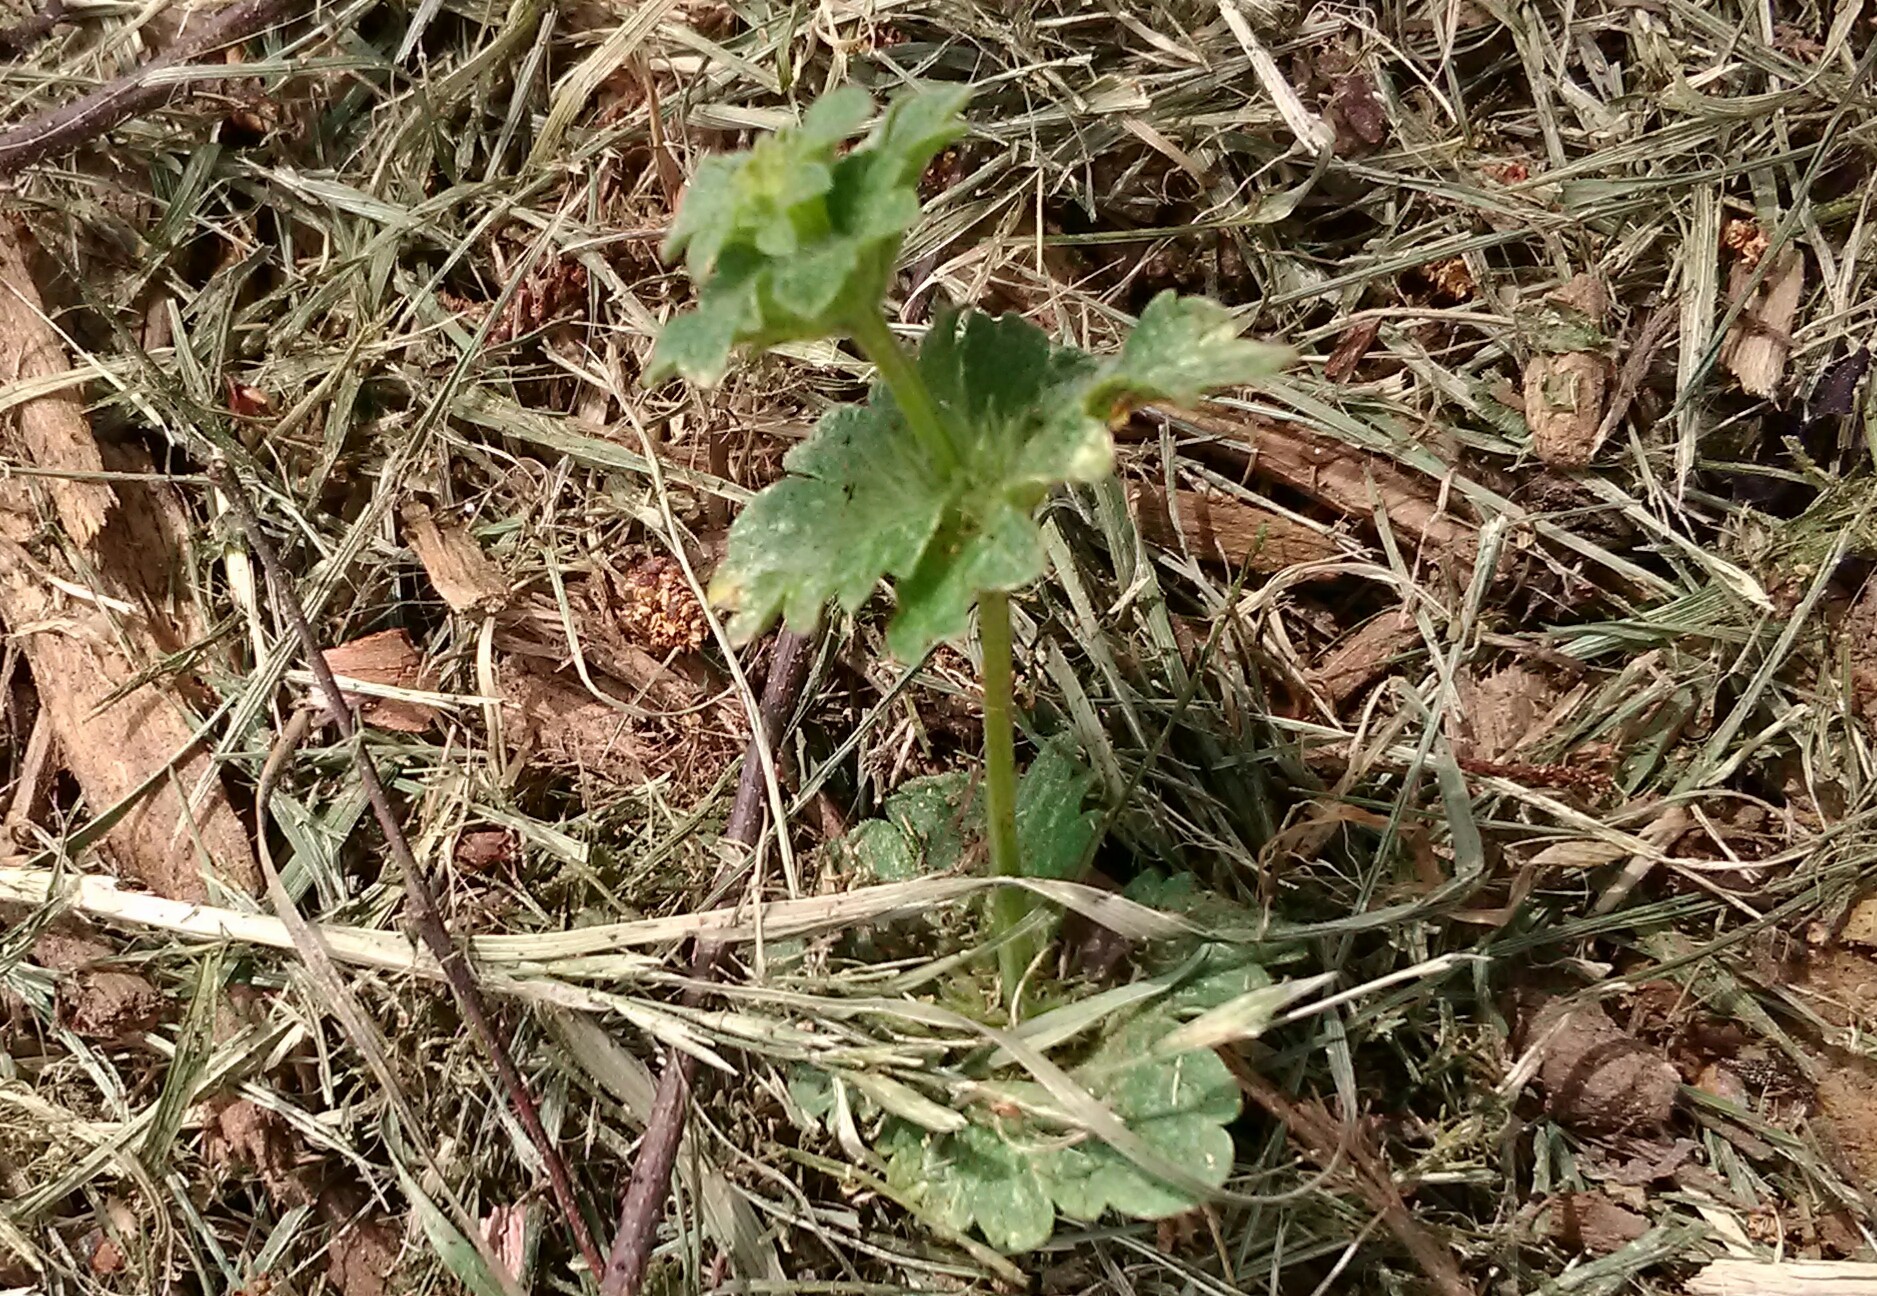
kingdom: Plantae
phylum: Tracheophyta
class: Magnoliopsida
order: Lamiales
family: Lamiaceae
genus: Lamium
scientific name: Lamium amplexicaule
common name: Henbit dead-nettle
